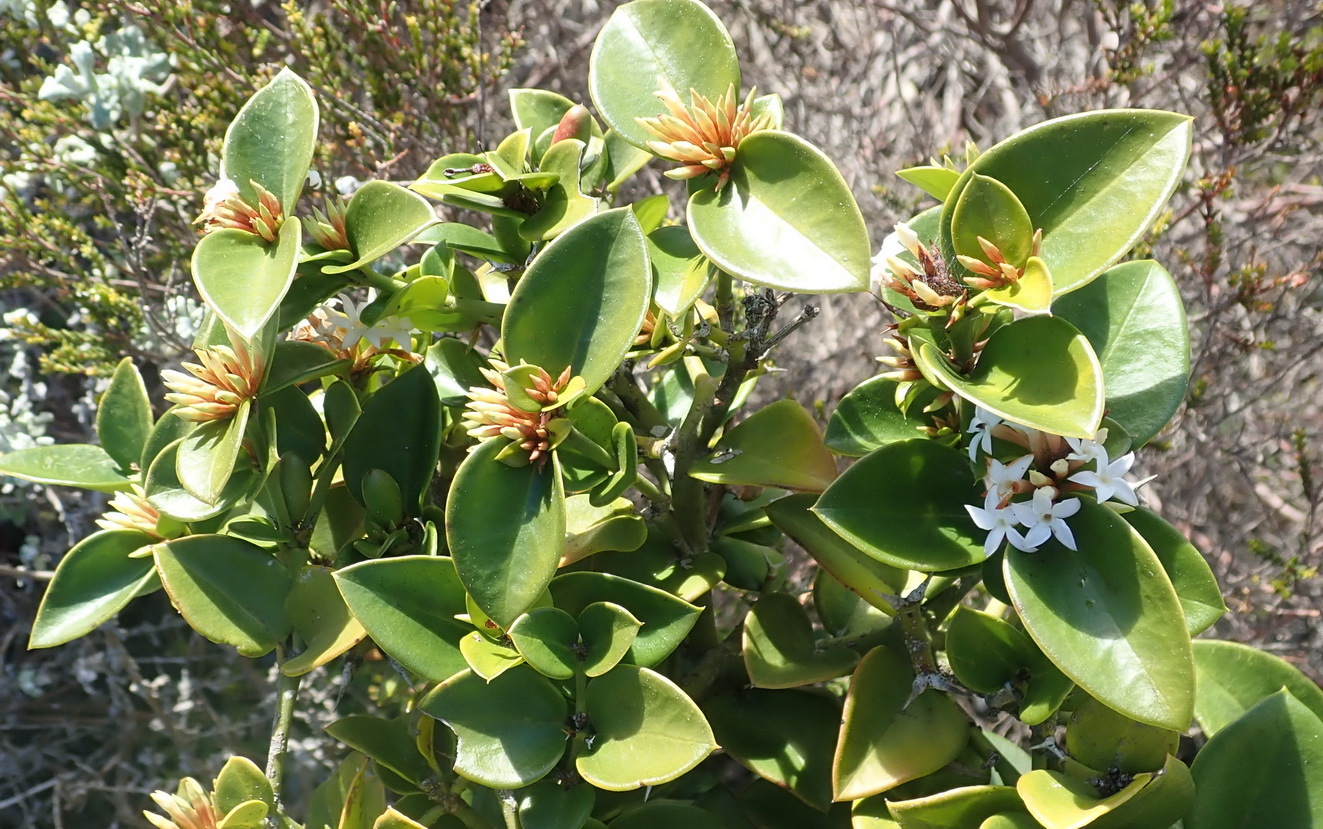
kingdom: Plantae
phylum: Tracheophyta
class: Magnoliopsida
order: Gentianales
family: Apocynaceae
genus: Carissa
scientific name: Carissa bispinosa
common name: Forest num-num
